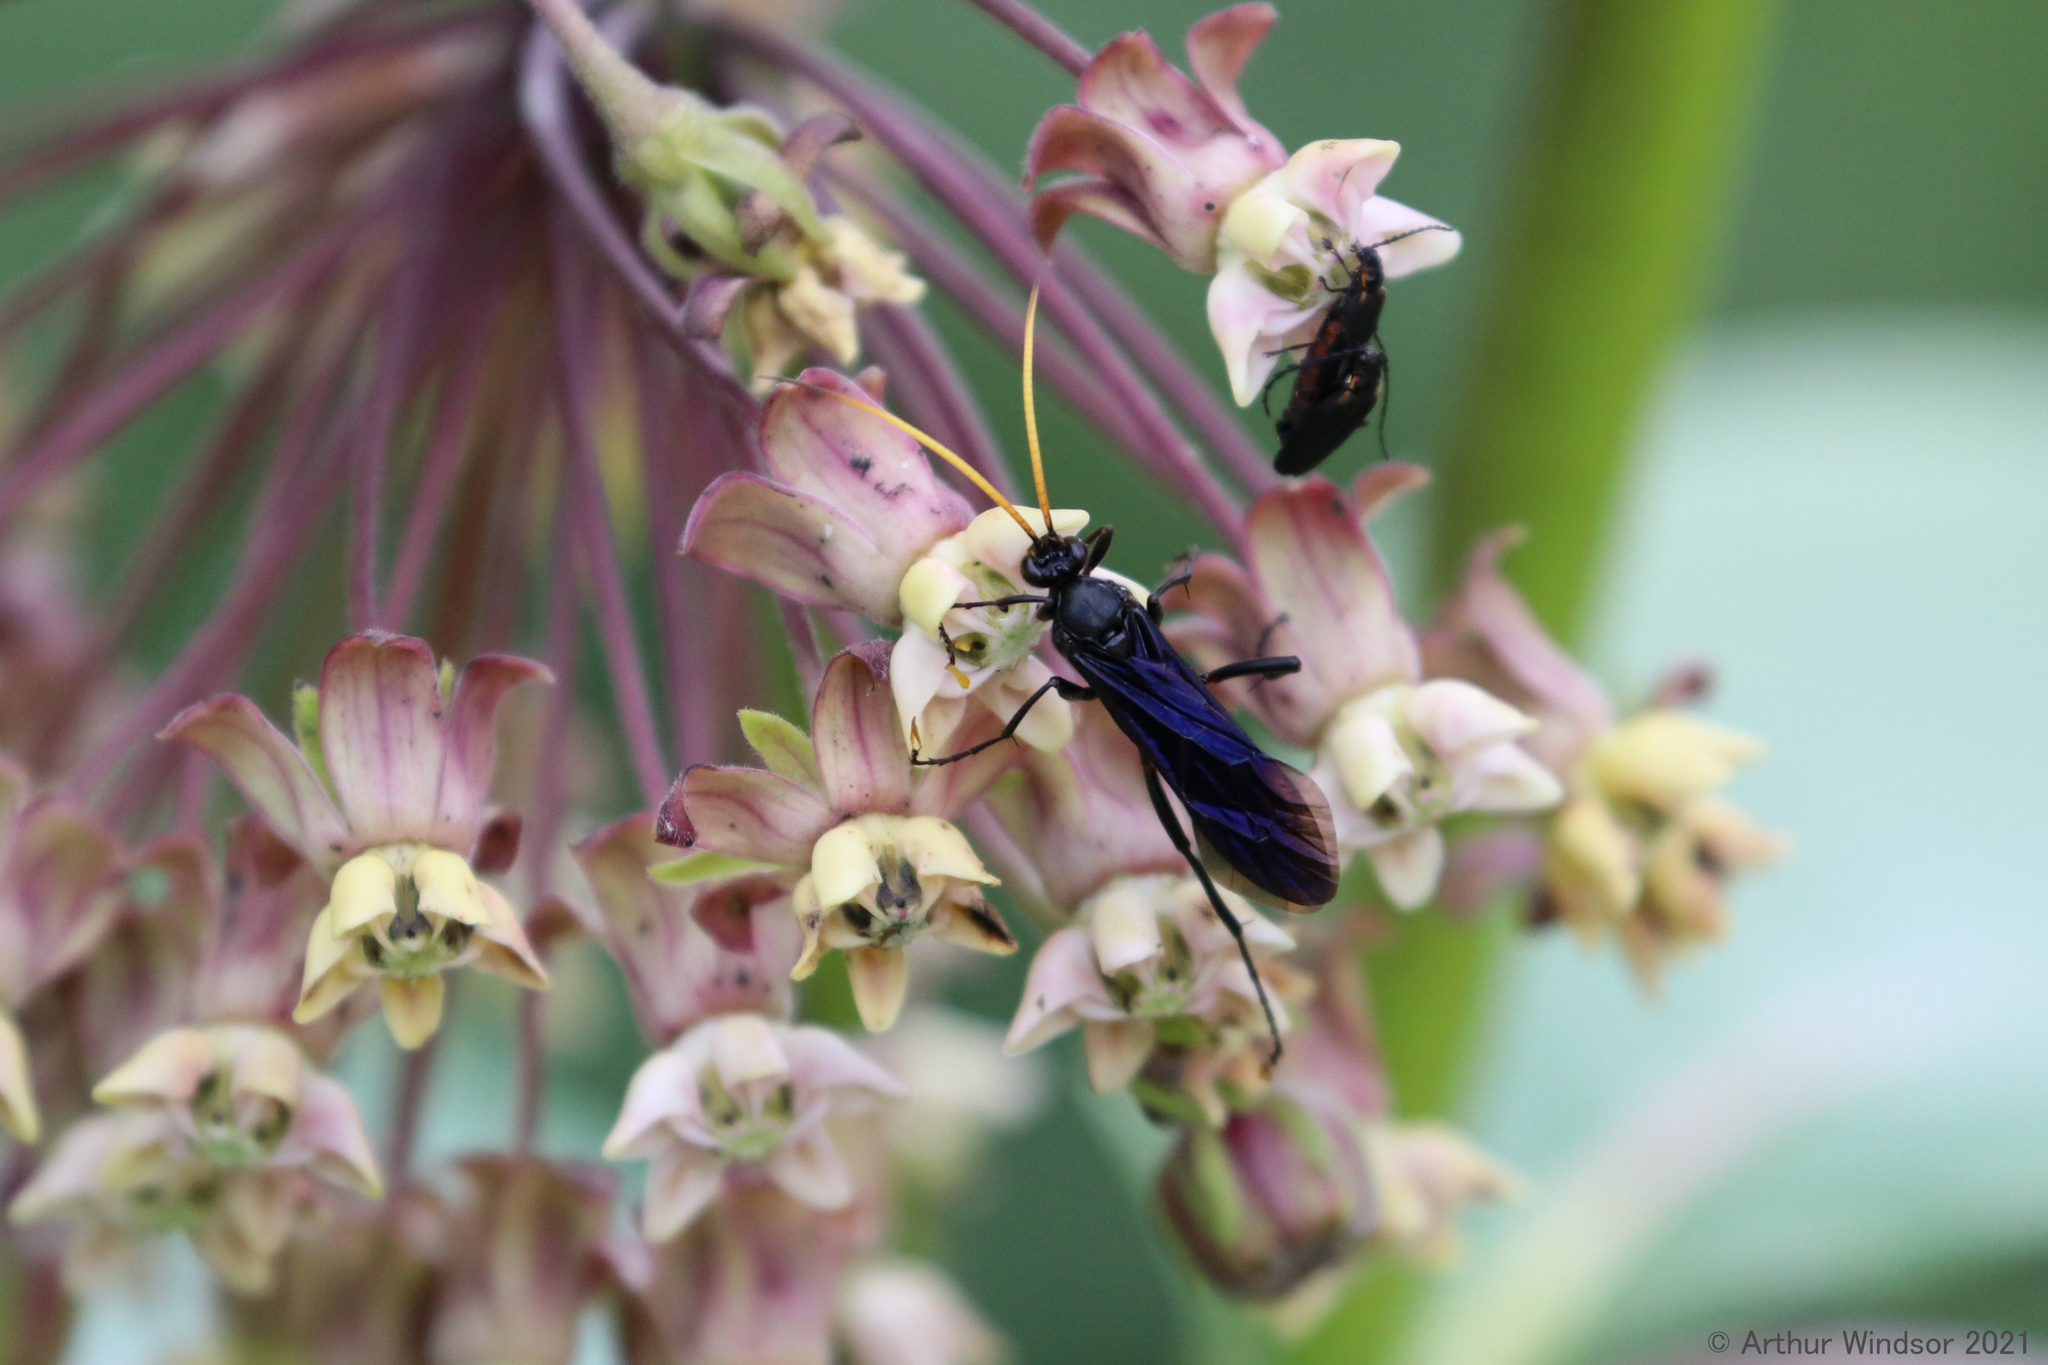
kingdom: Animalia
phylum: Arthropoda
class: Insecta
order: Hymenoptera
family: Ichneumonidae
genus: Gnamptopelta
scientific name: Gnamptopelta obsidianator
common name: Bent-shielded besieger wasp
